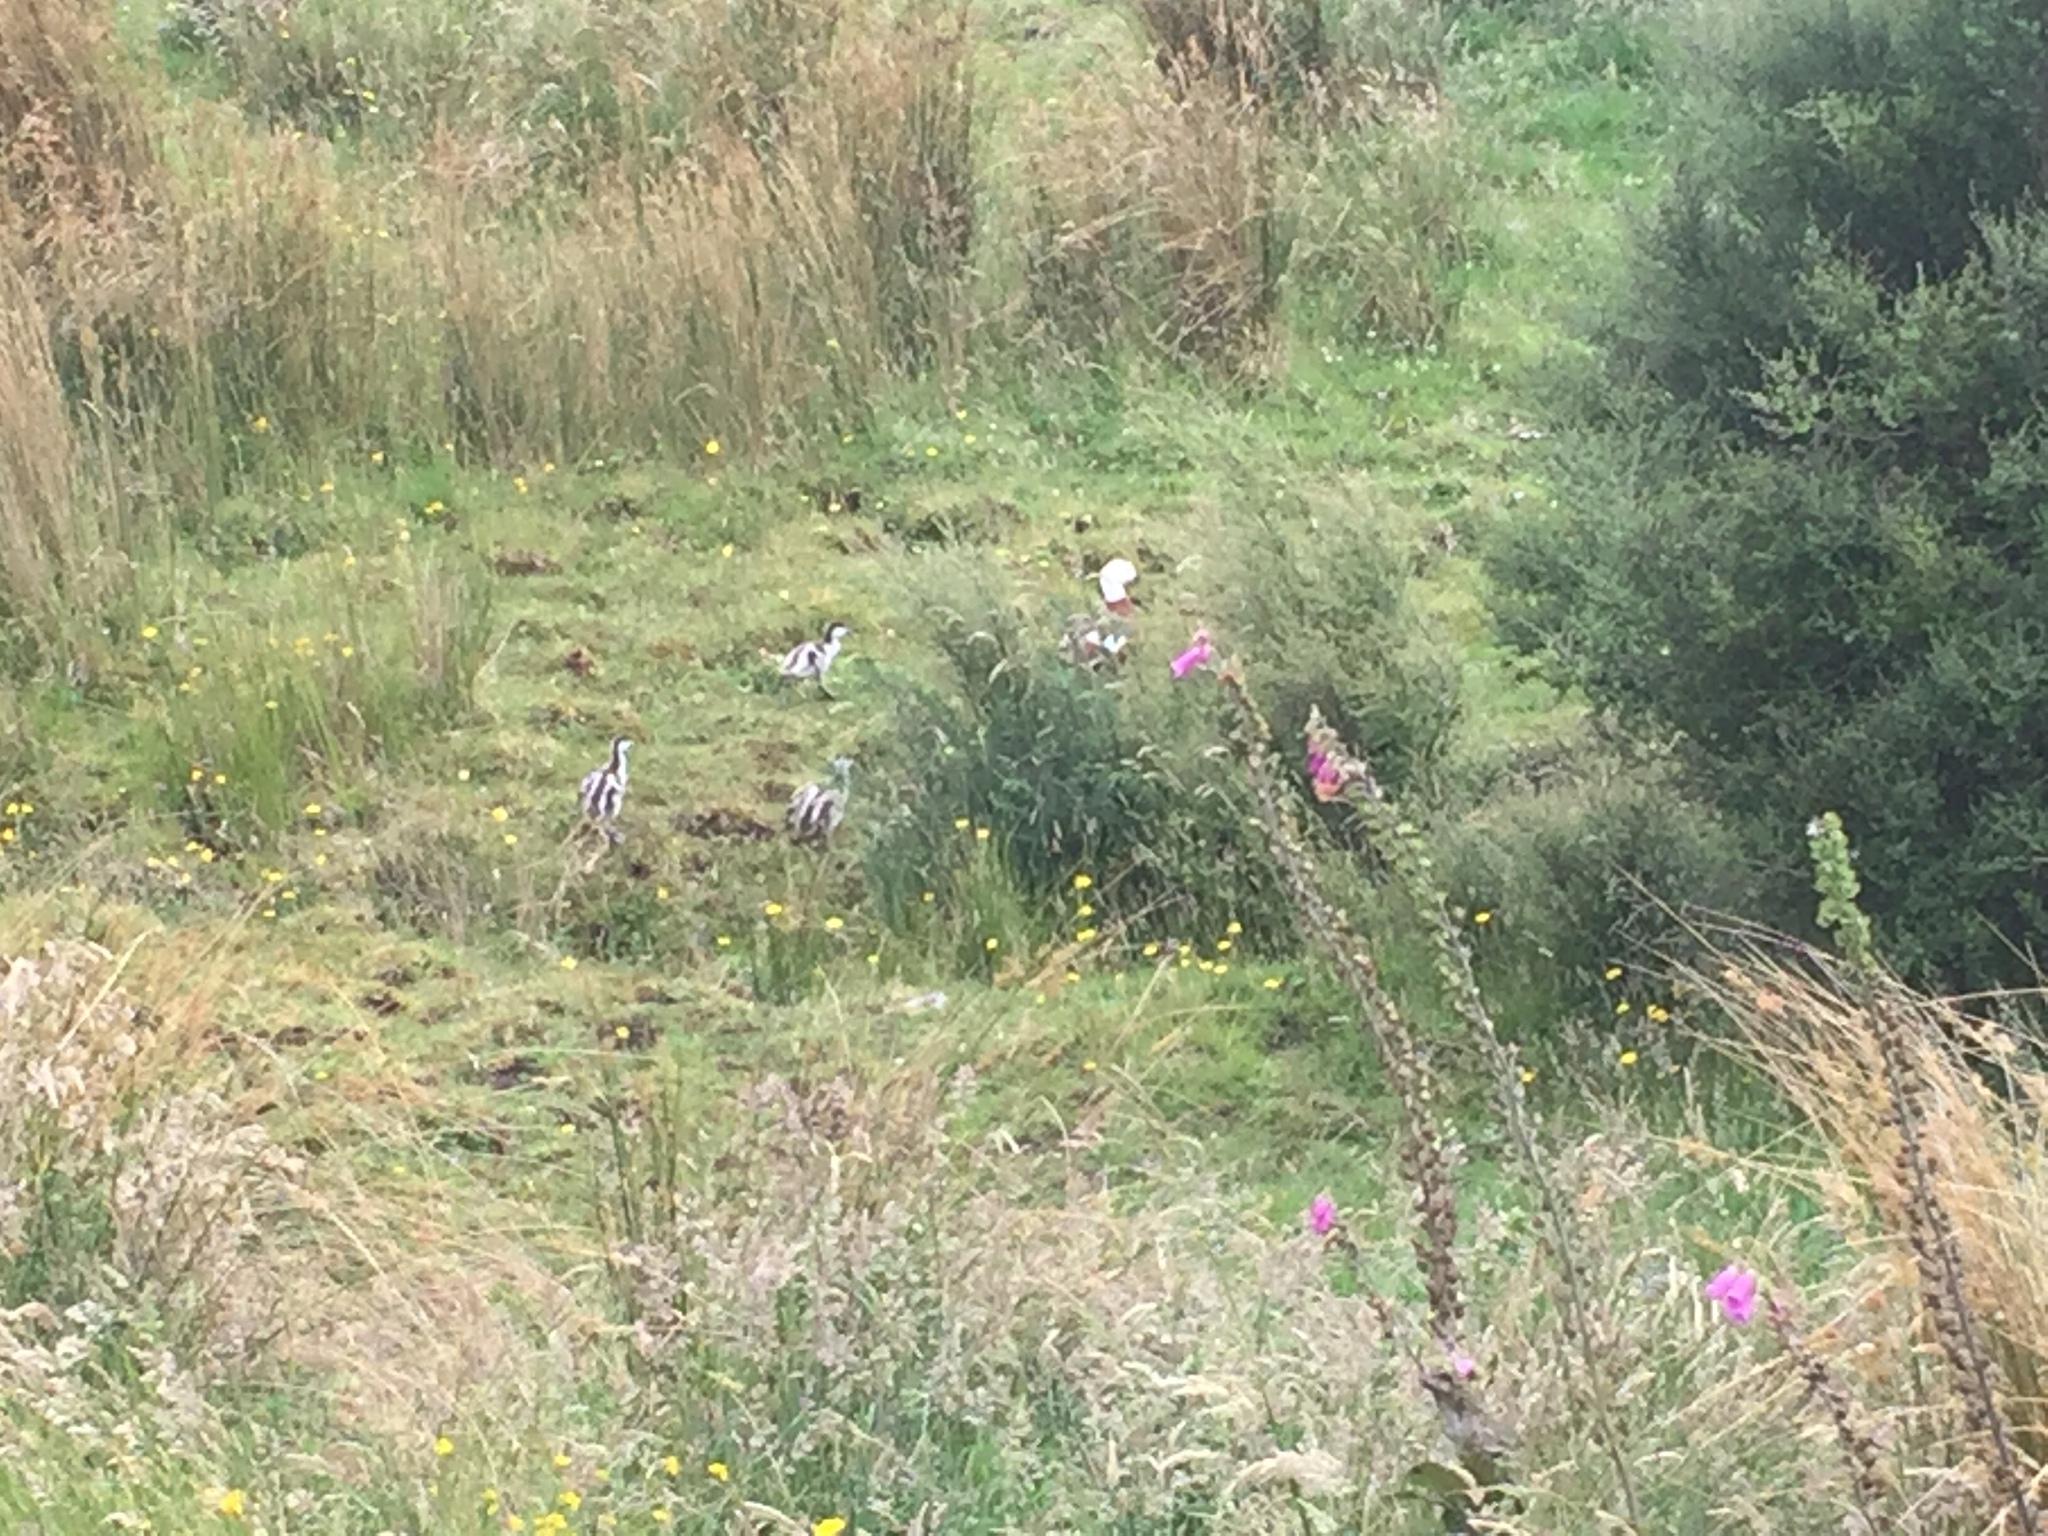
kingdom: Animalia
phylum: Chordata
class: Aves
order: Anseriformes
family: Anatidae
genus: Tadorna
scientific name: Tadorna variegata
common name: Paradise shelduck
